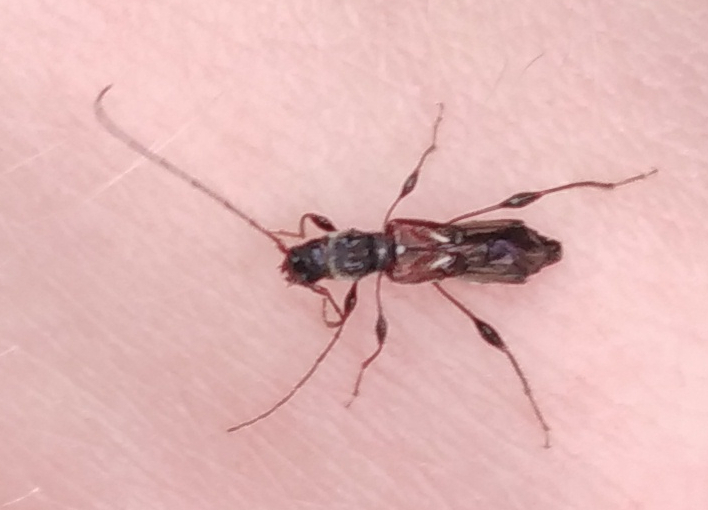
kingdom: Animalia
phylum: Arthropoda
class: Insecta
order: Coleoptera
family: Cerambycidae
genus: Molorchus
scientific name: Molorchus minor
